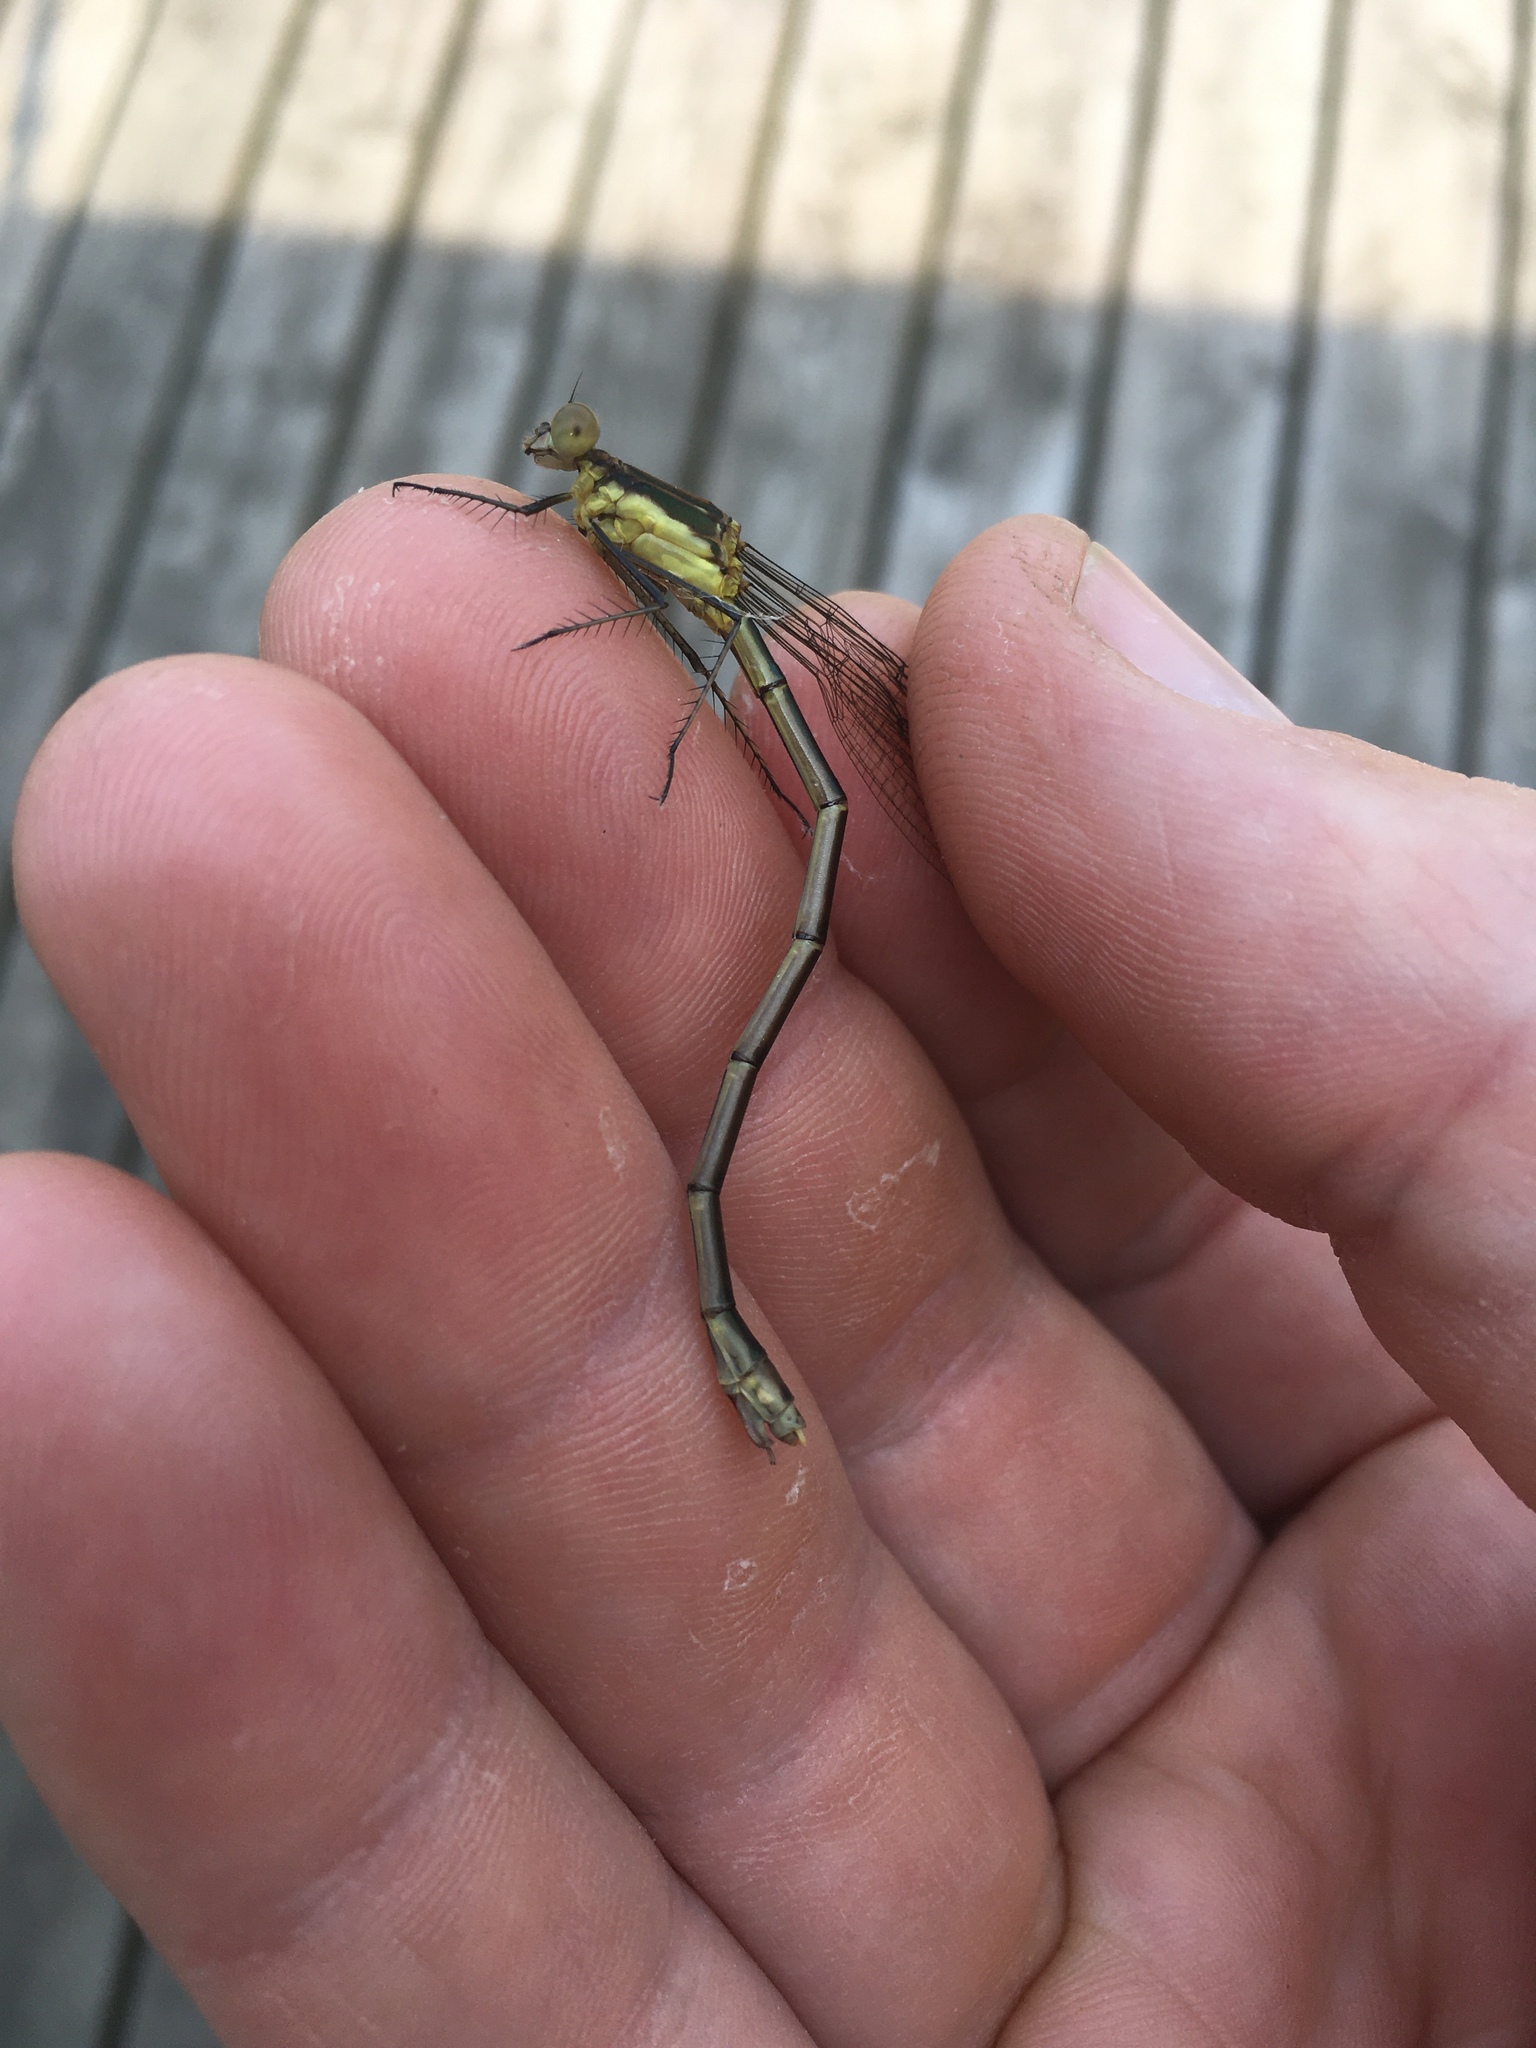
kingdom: Animalia
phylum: Arthropoda
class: Insecta
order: Odonata
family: Lestidae
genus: Lestes
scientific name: Lestes inaequalis
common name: Elegant spreadwing
